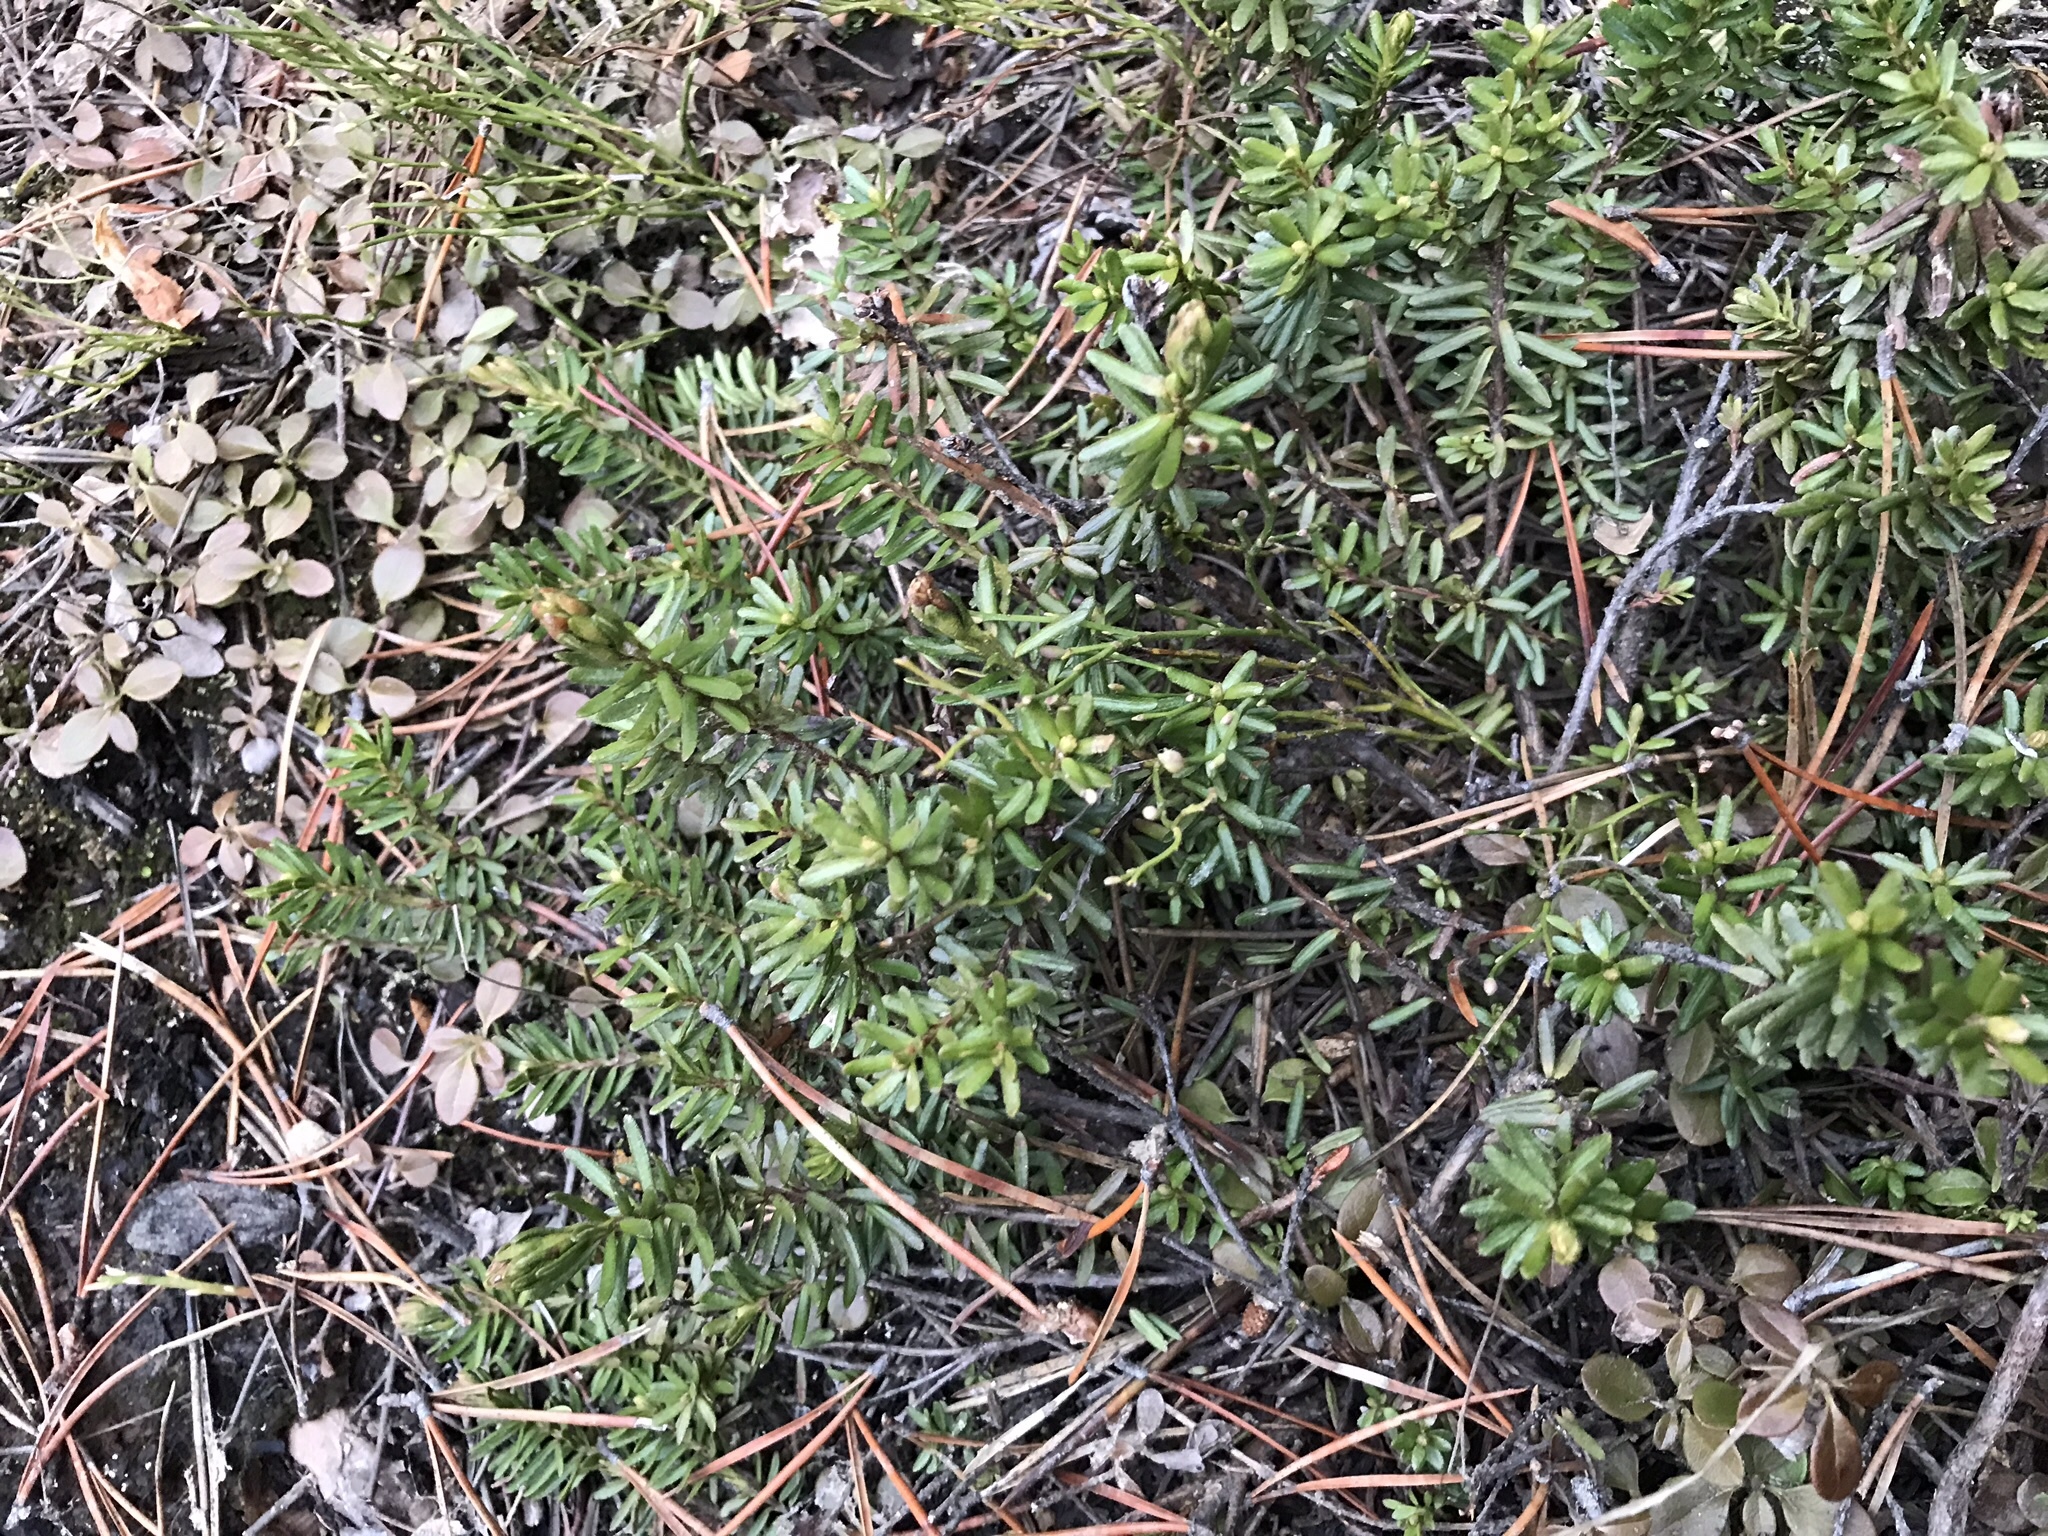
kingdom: Plantae
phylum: Tracheophyta
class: Magnoliopsida
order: Ericales
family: Ericaceae
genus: Phyllodoce
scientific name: Phyllodoce empetriformis
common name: Pink mountain heather
